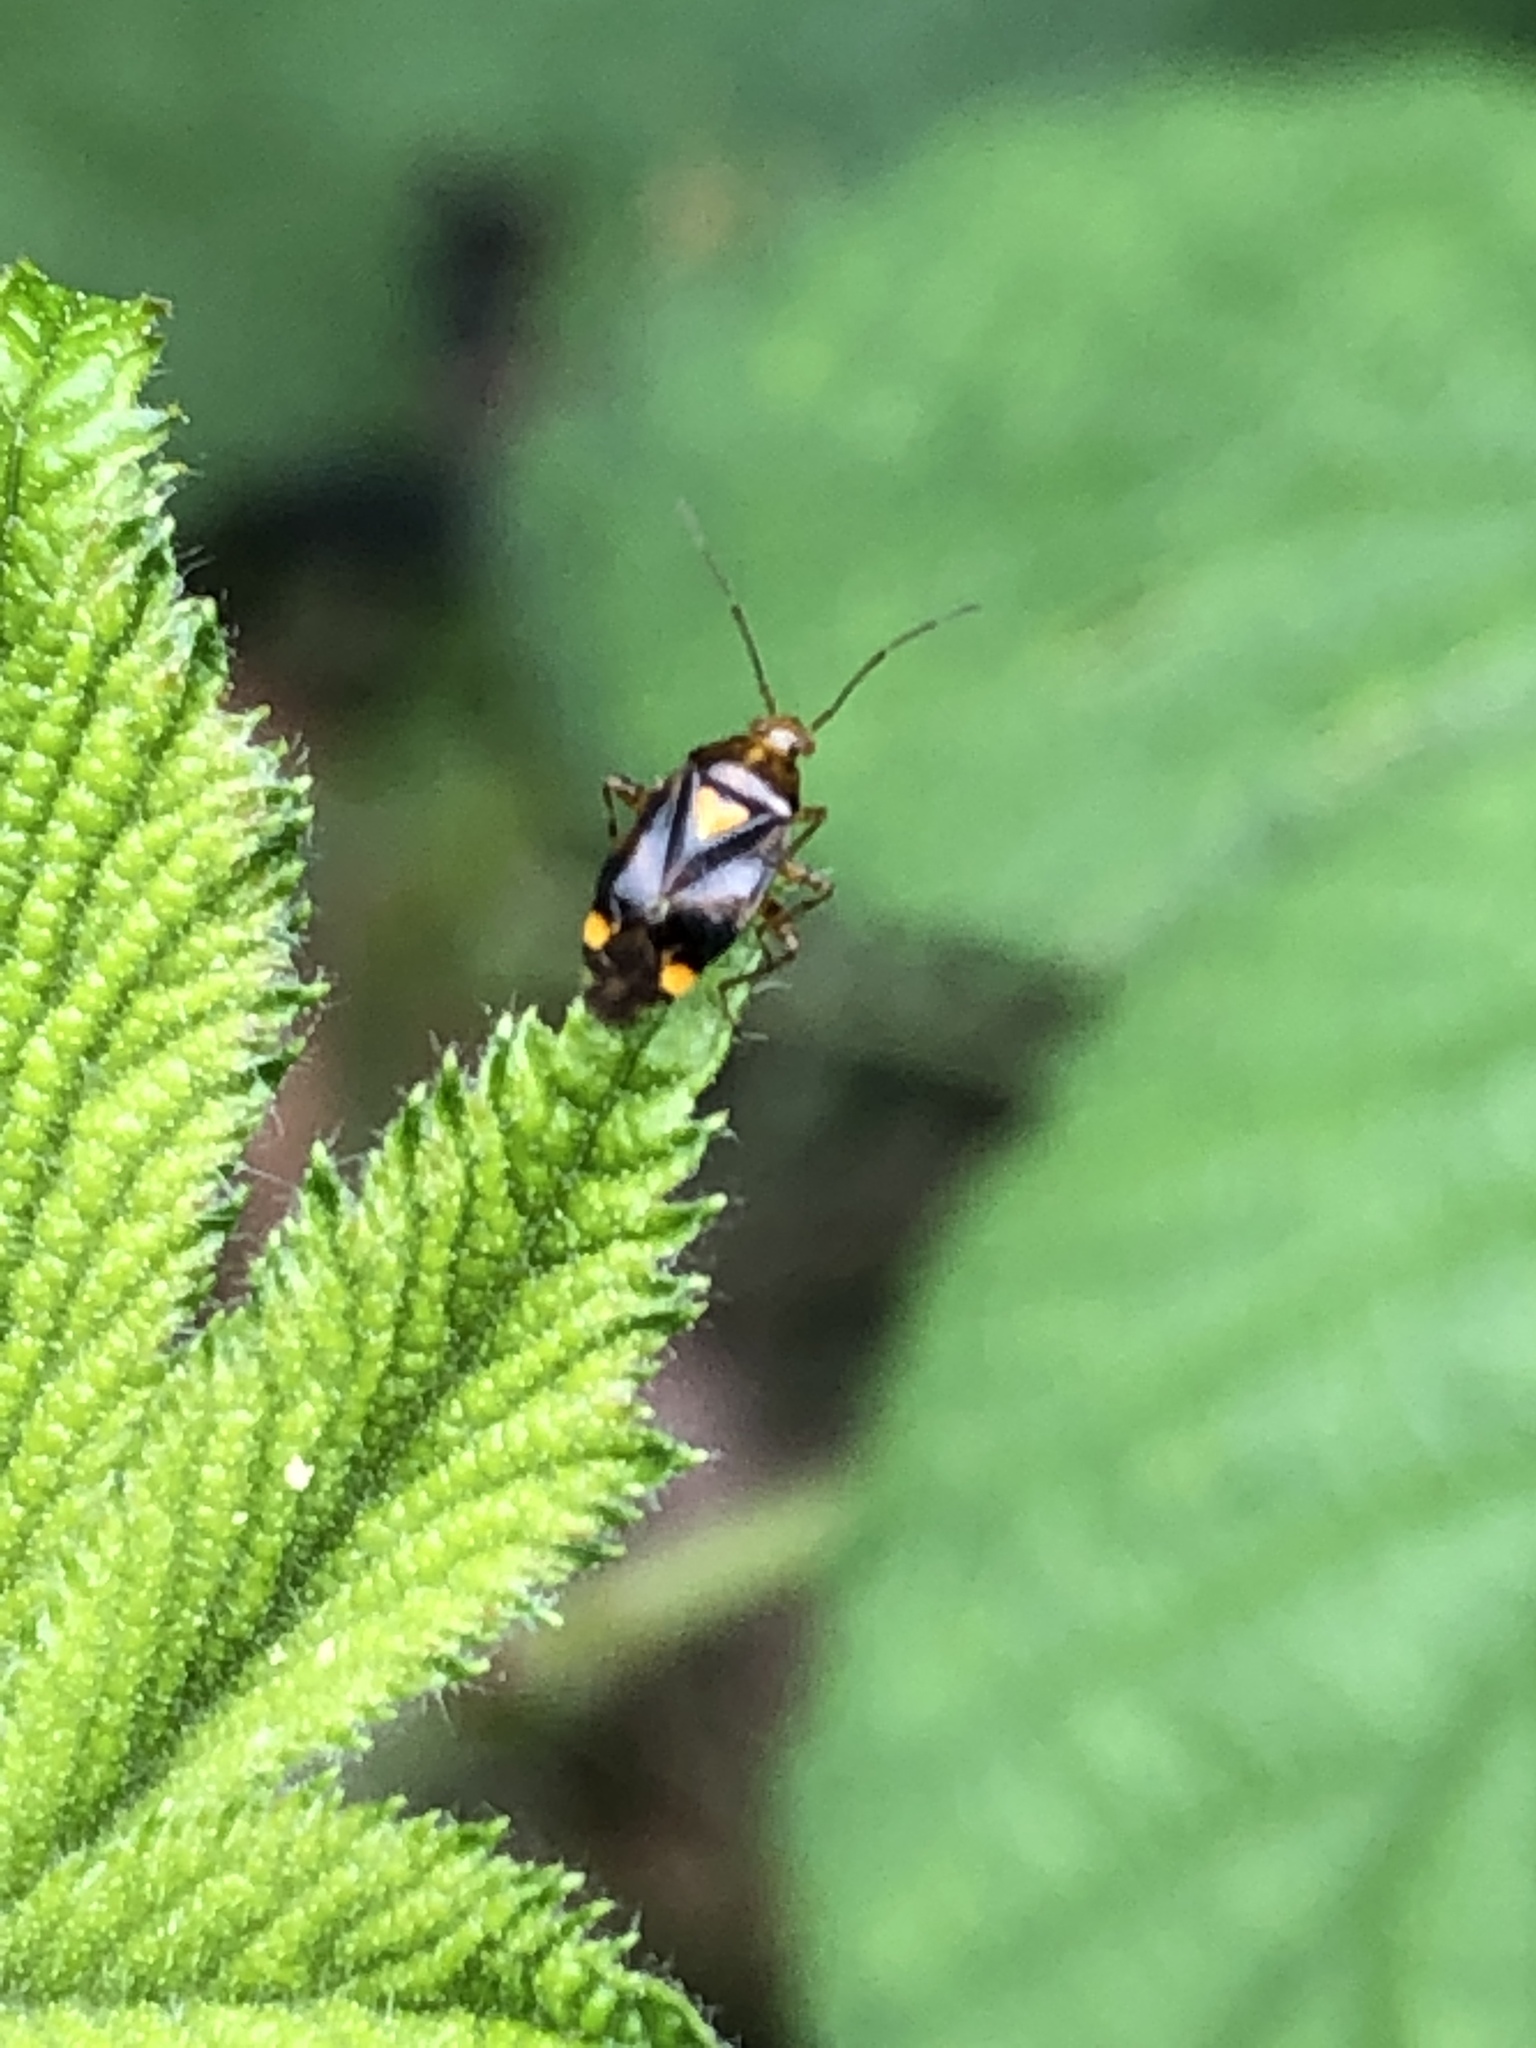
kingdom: Animalia
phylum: Arthropoda
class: Insecta
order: Hemiptera
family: Miridae
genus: Liocoris
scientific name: Liocoris tripustulatus
